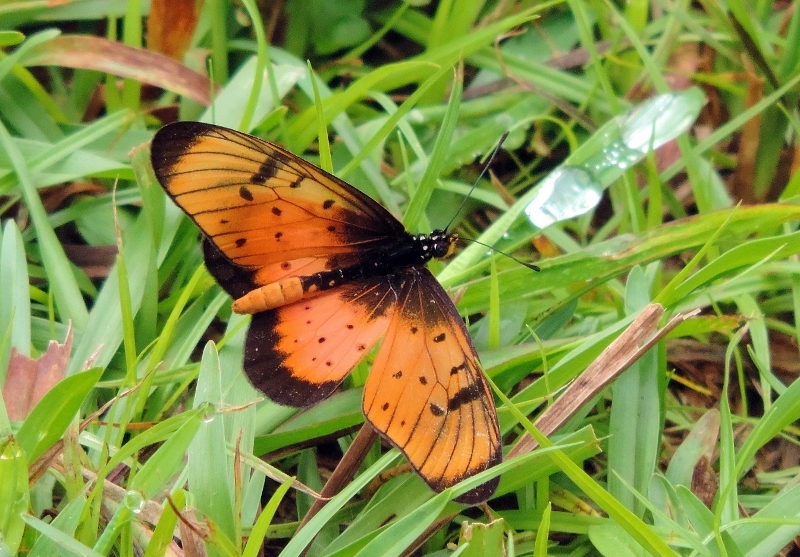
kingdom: Animalia
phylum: Arthropoda
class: Insecta
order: Lepidoptera
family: Nymphalidae
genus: Stephenia
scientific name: Stephenia
